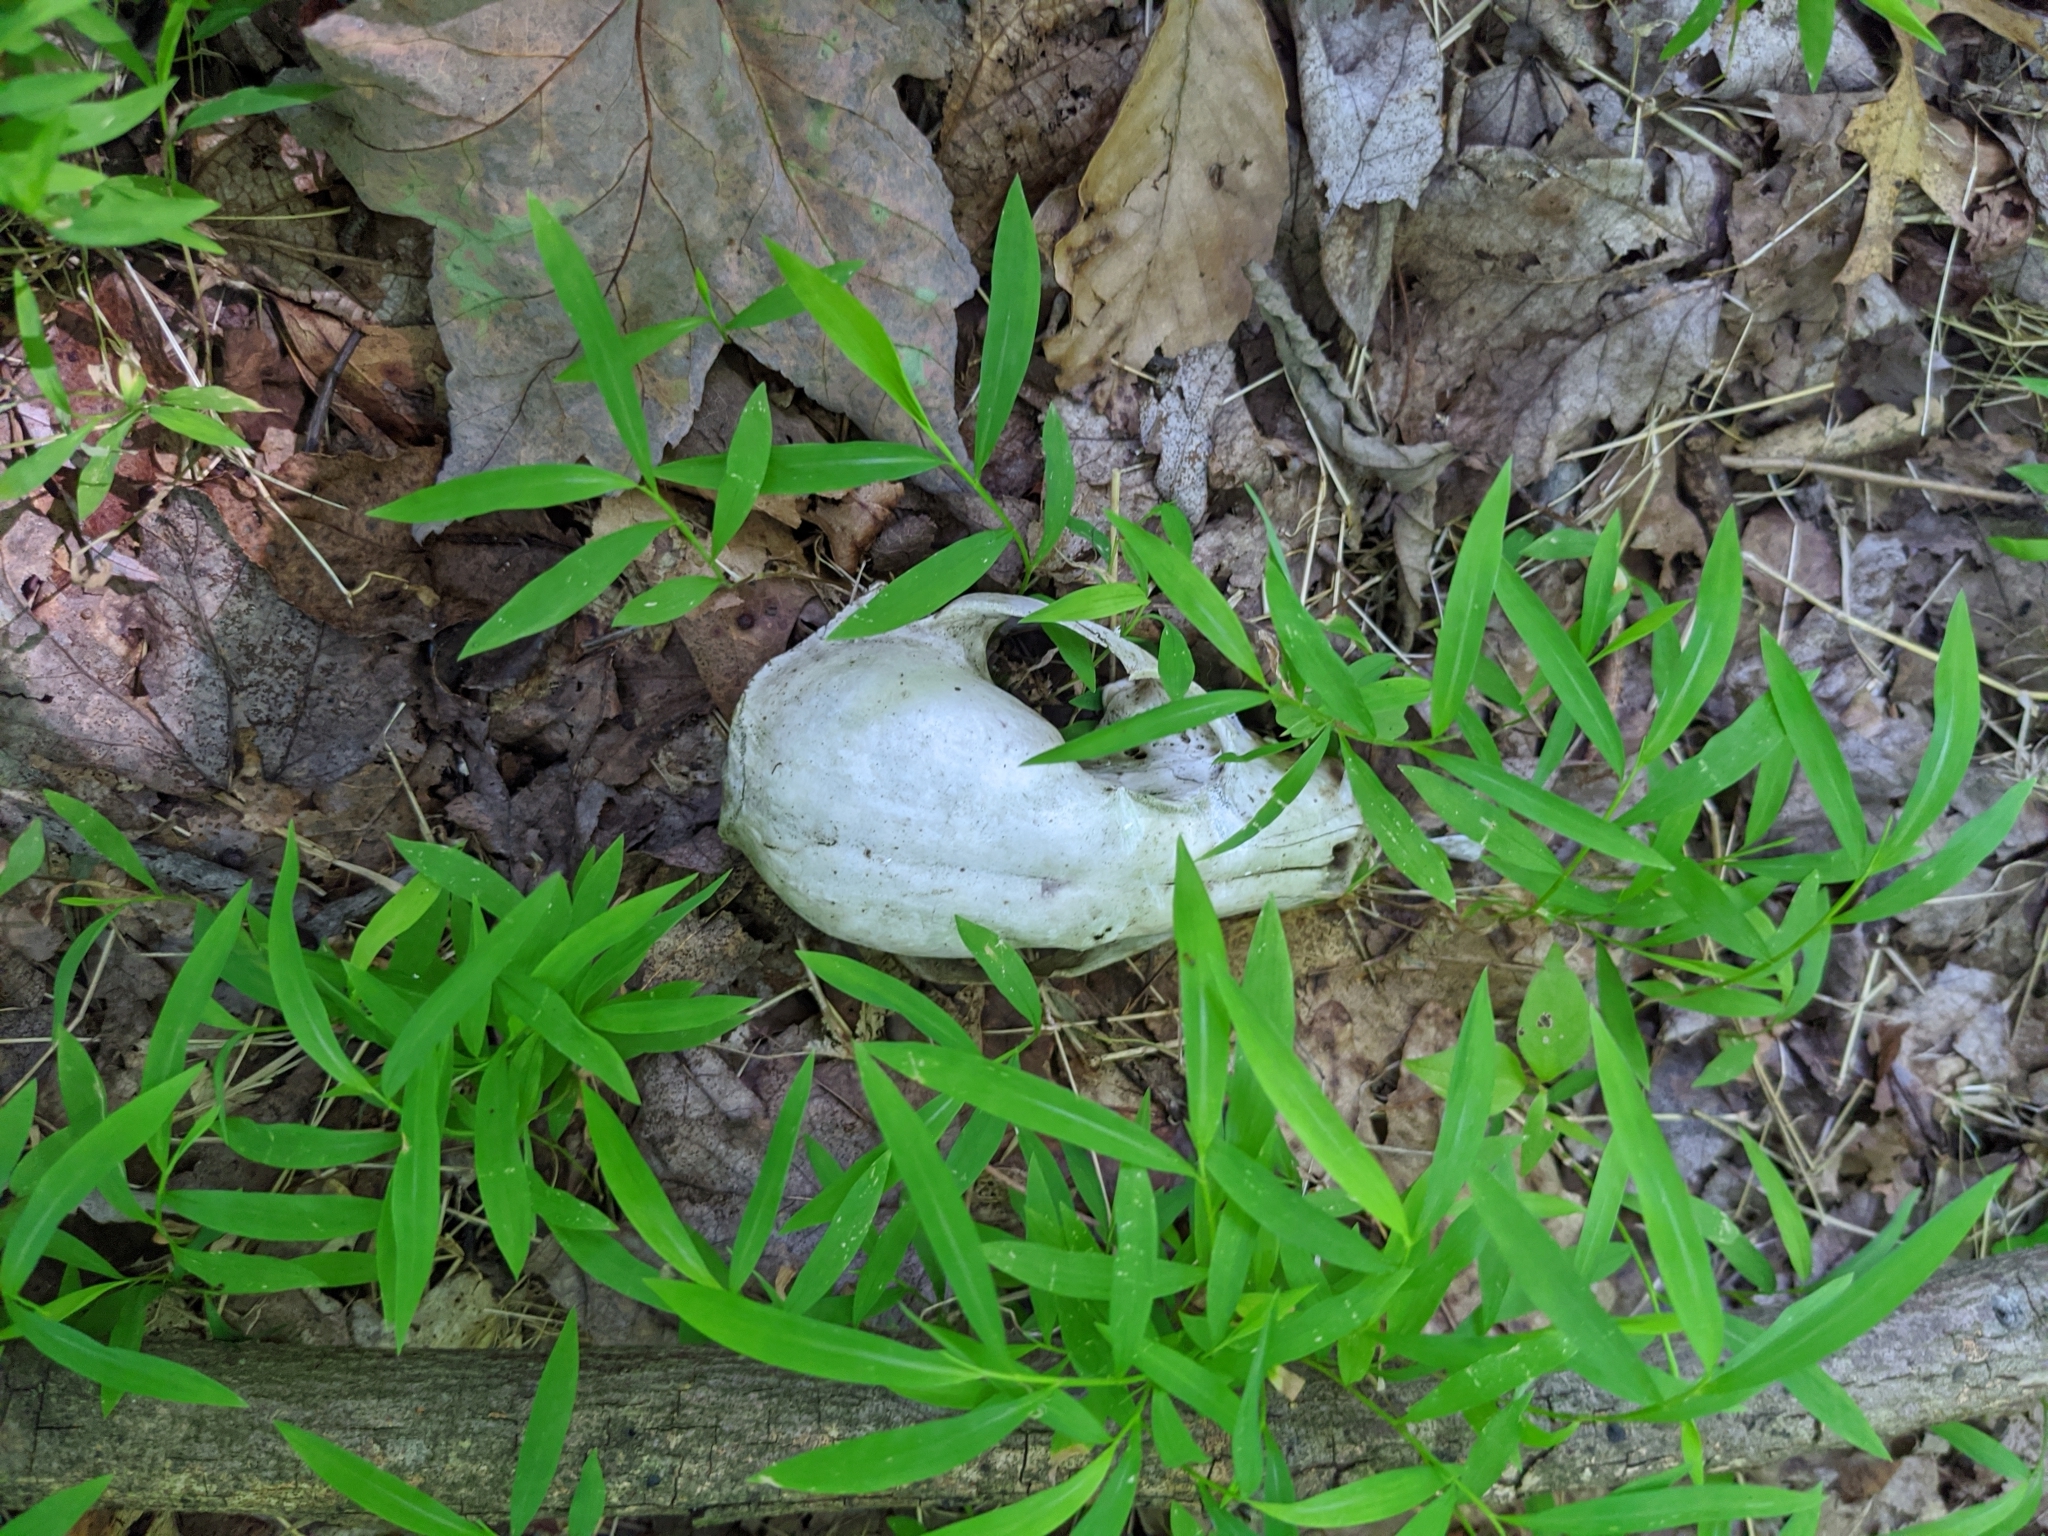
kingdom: Animalia
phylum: Chordata
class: Mammalia
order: Carnivora
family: Procyonidae
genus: Procyon
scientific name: Procyon lotor
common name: Raccoon
